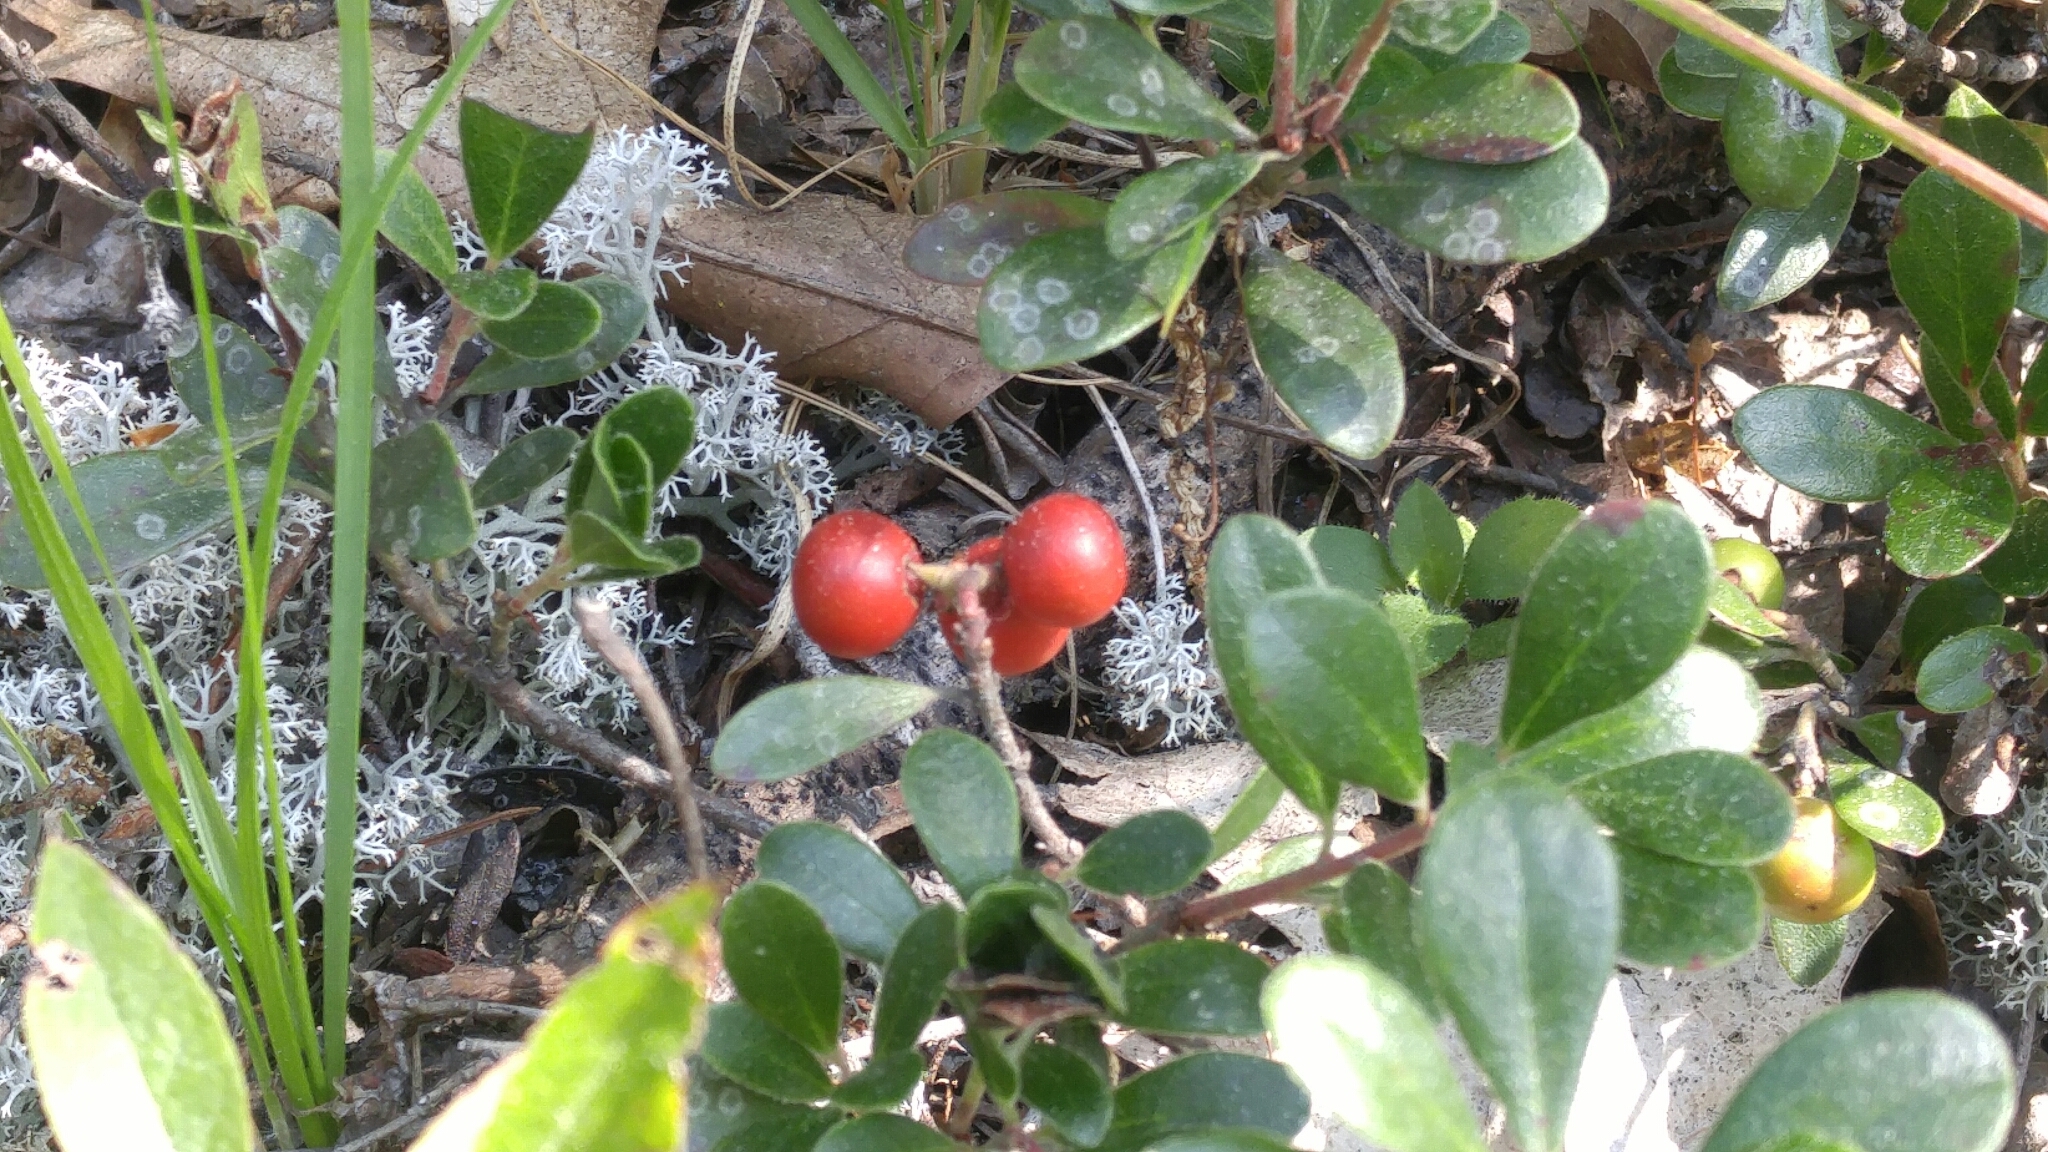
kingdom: Plantae
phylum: Tracheophyta
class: Magnoliopsida
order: Ericales
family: Ericaceae
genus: Arctostaphylos
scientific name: Arctostaphylos uva-ursi
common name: Bearberry
